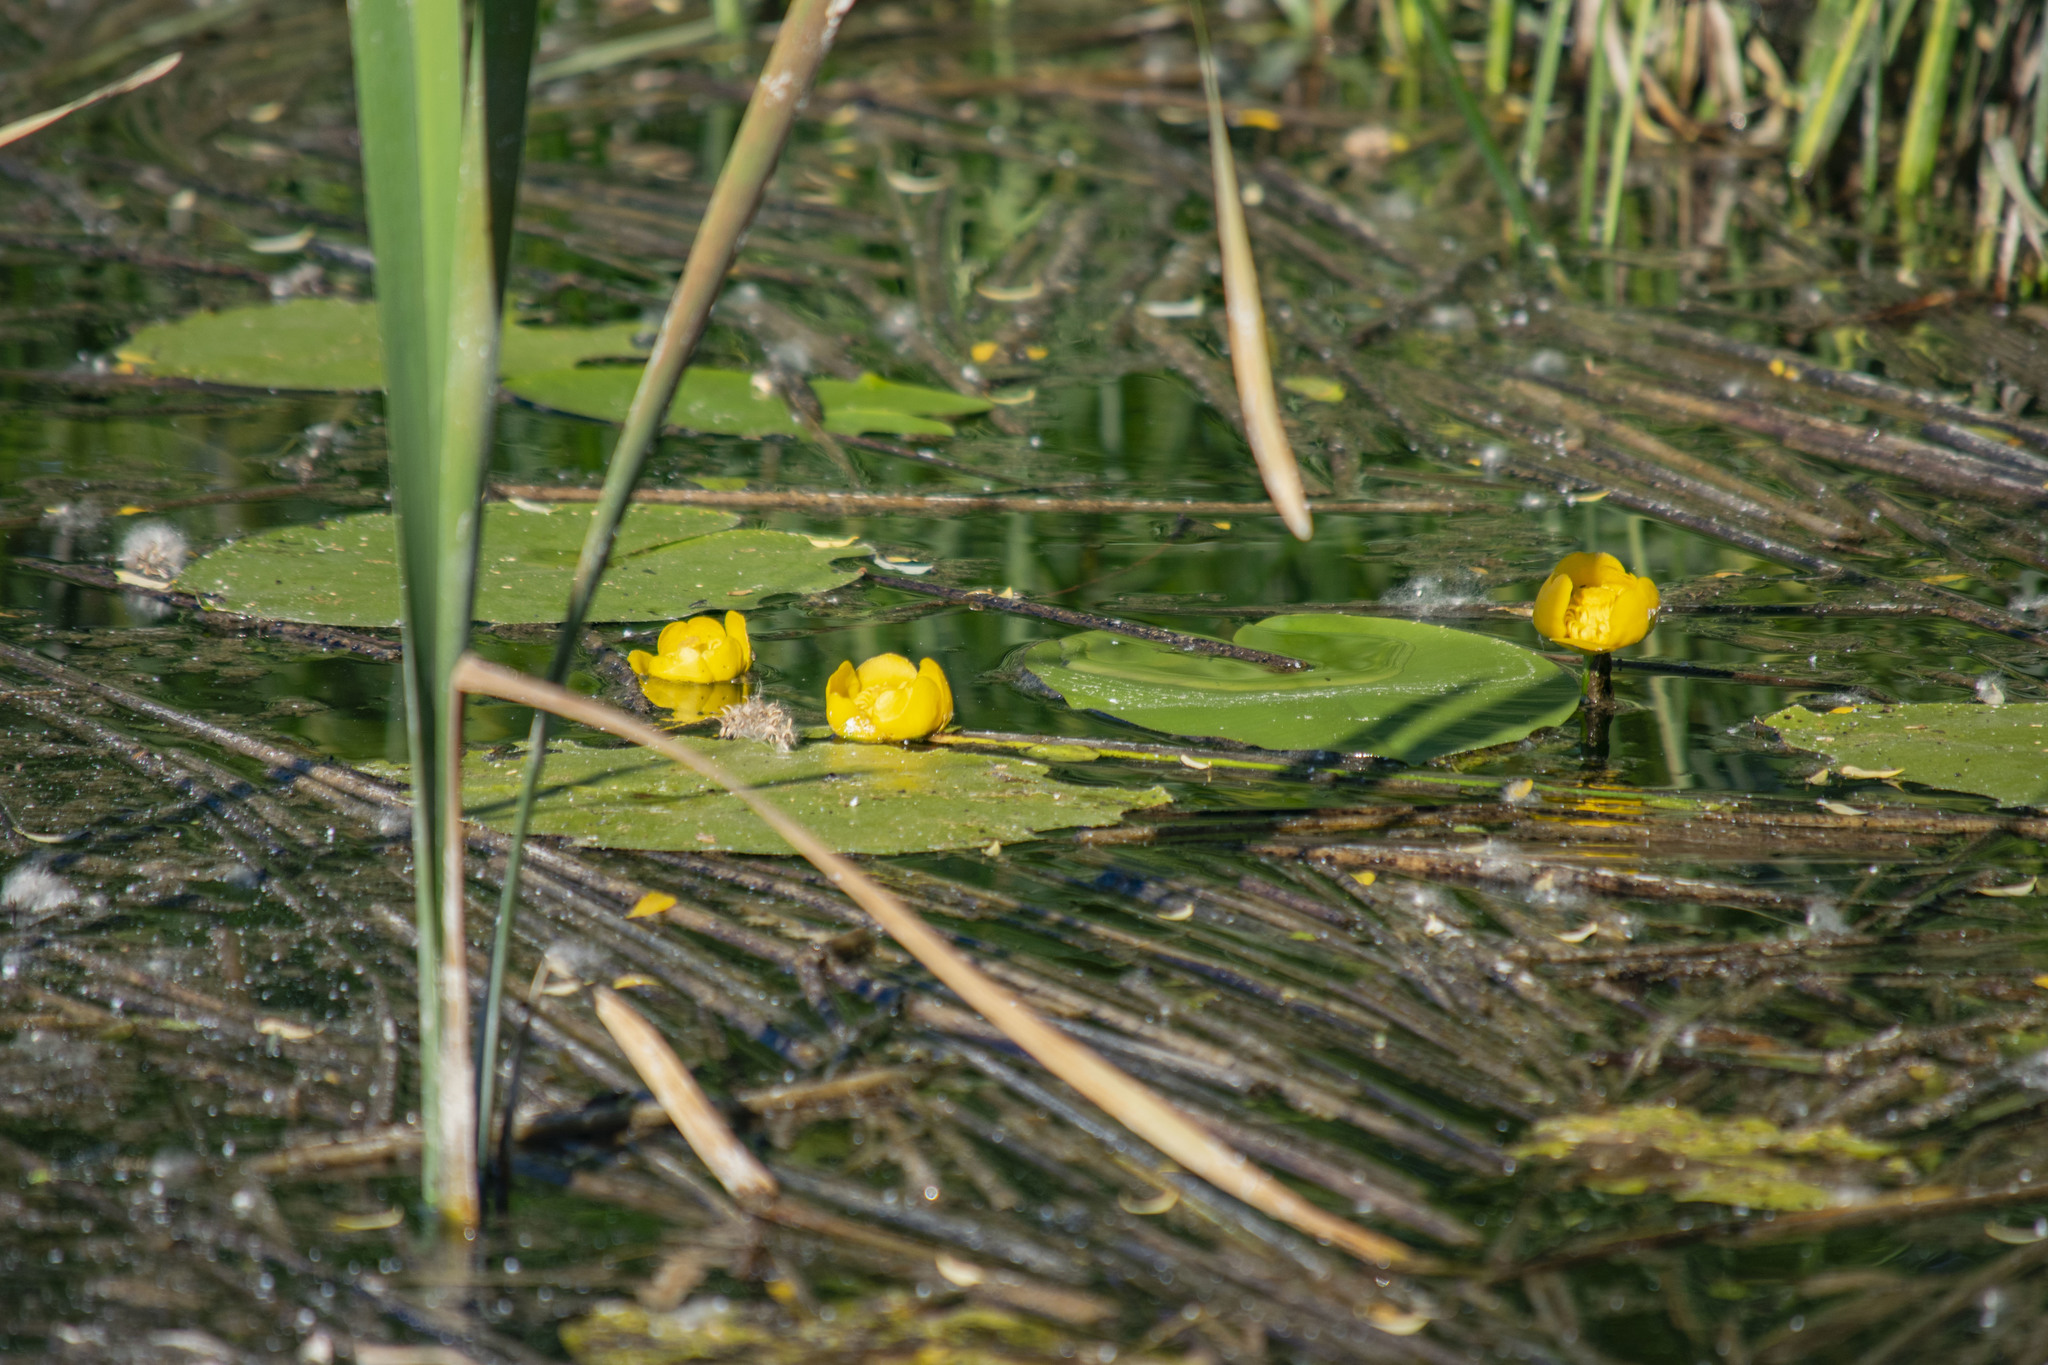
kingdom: Plantae
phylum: Tracheophyta
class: Magnoliopsida
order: Nymphaeales
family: Nymphaeaceae
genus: Nuphar
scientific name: Nuphar lutea
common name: Yellow water-lily
